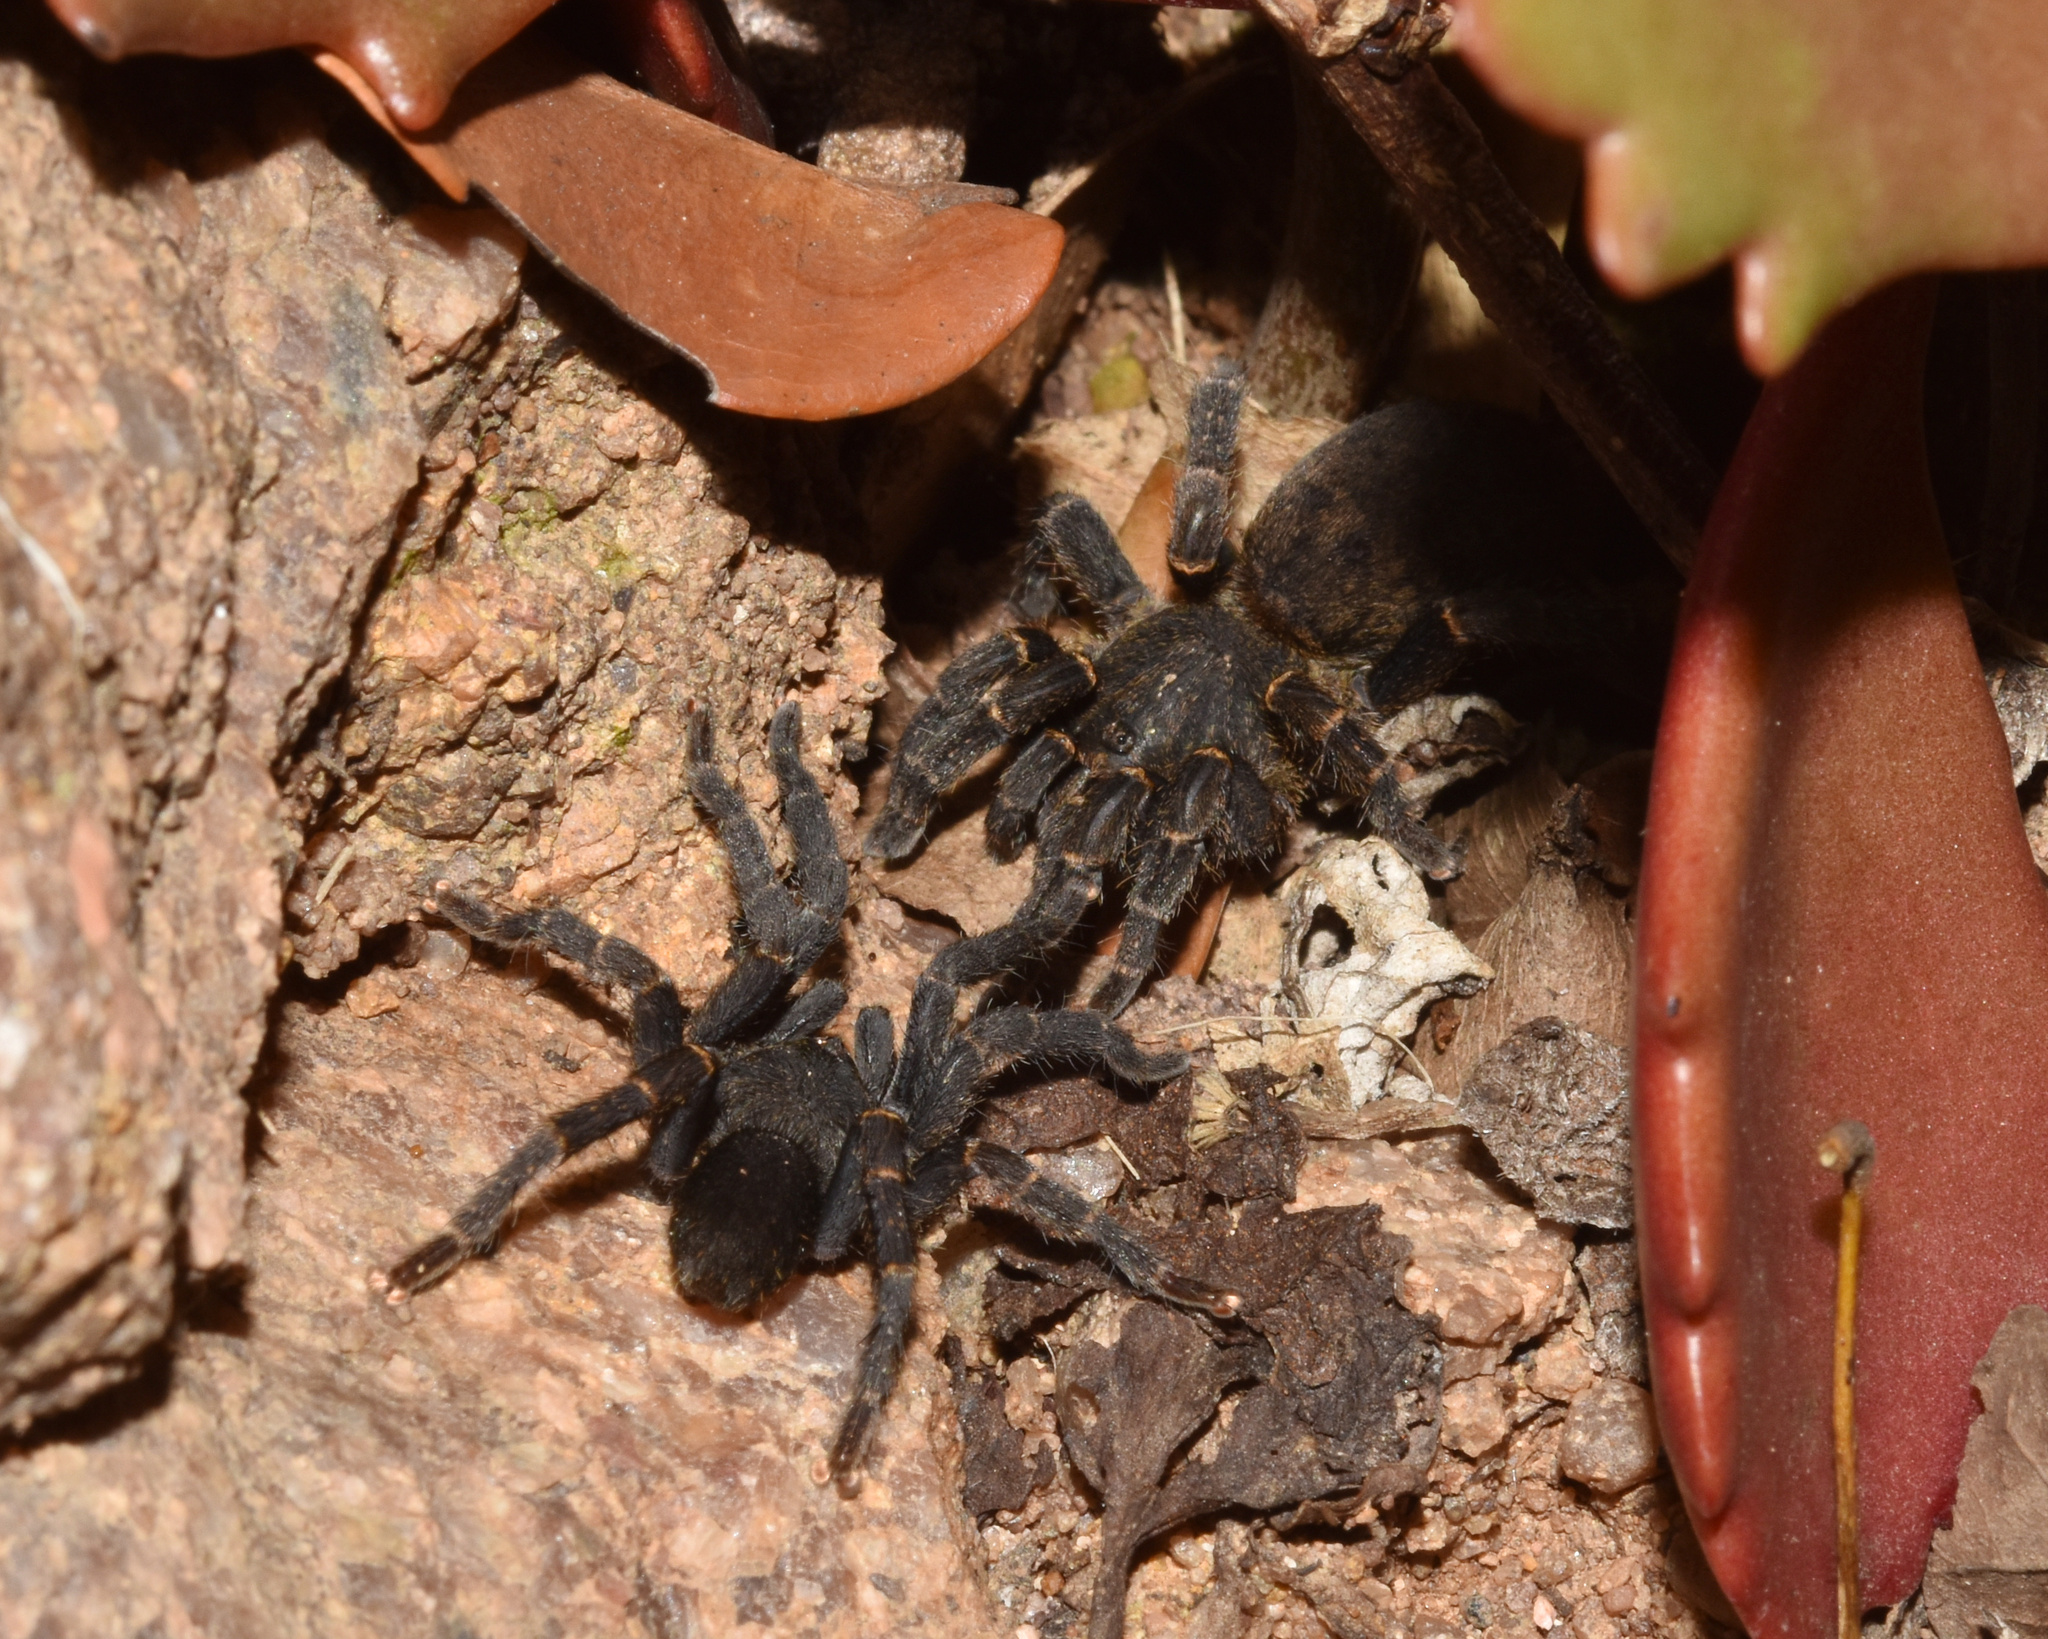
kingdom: Animalia
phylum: Arthropoda
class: Arachnida
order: Araneae
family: Theraphosidae
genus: Brachionopus
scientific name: Brachionopus robustus
